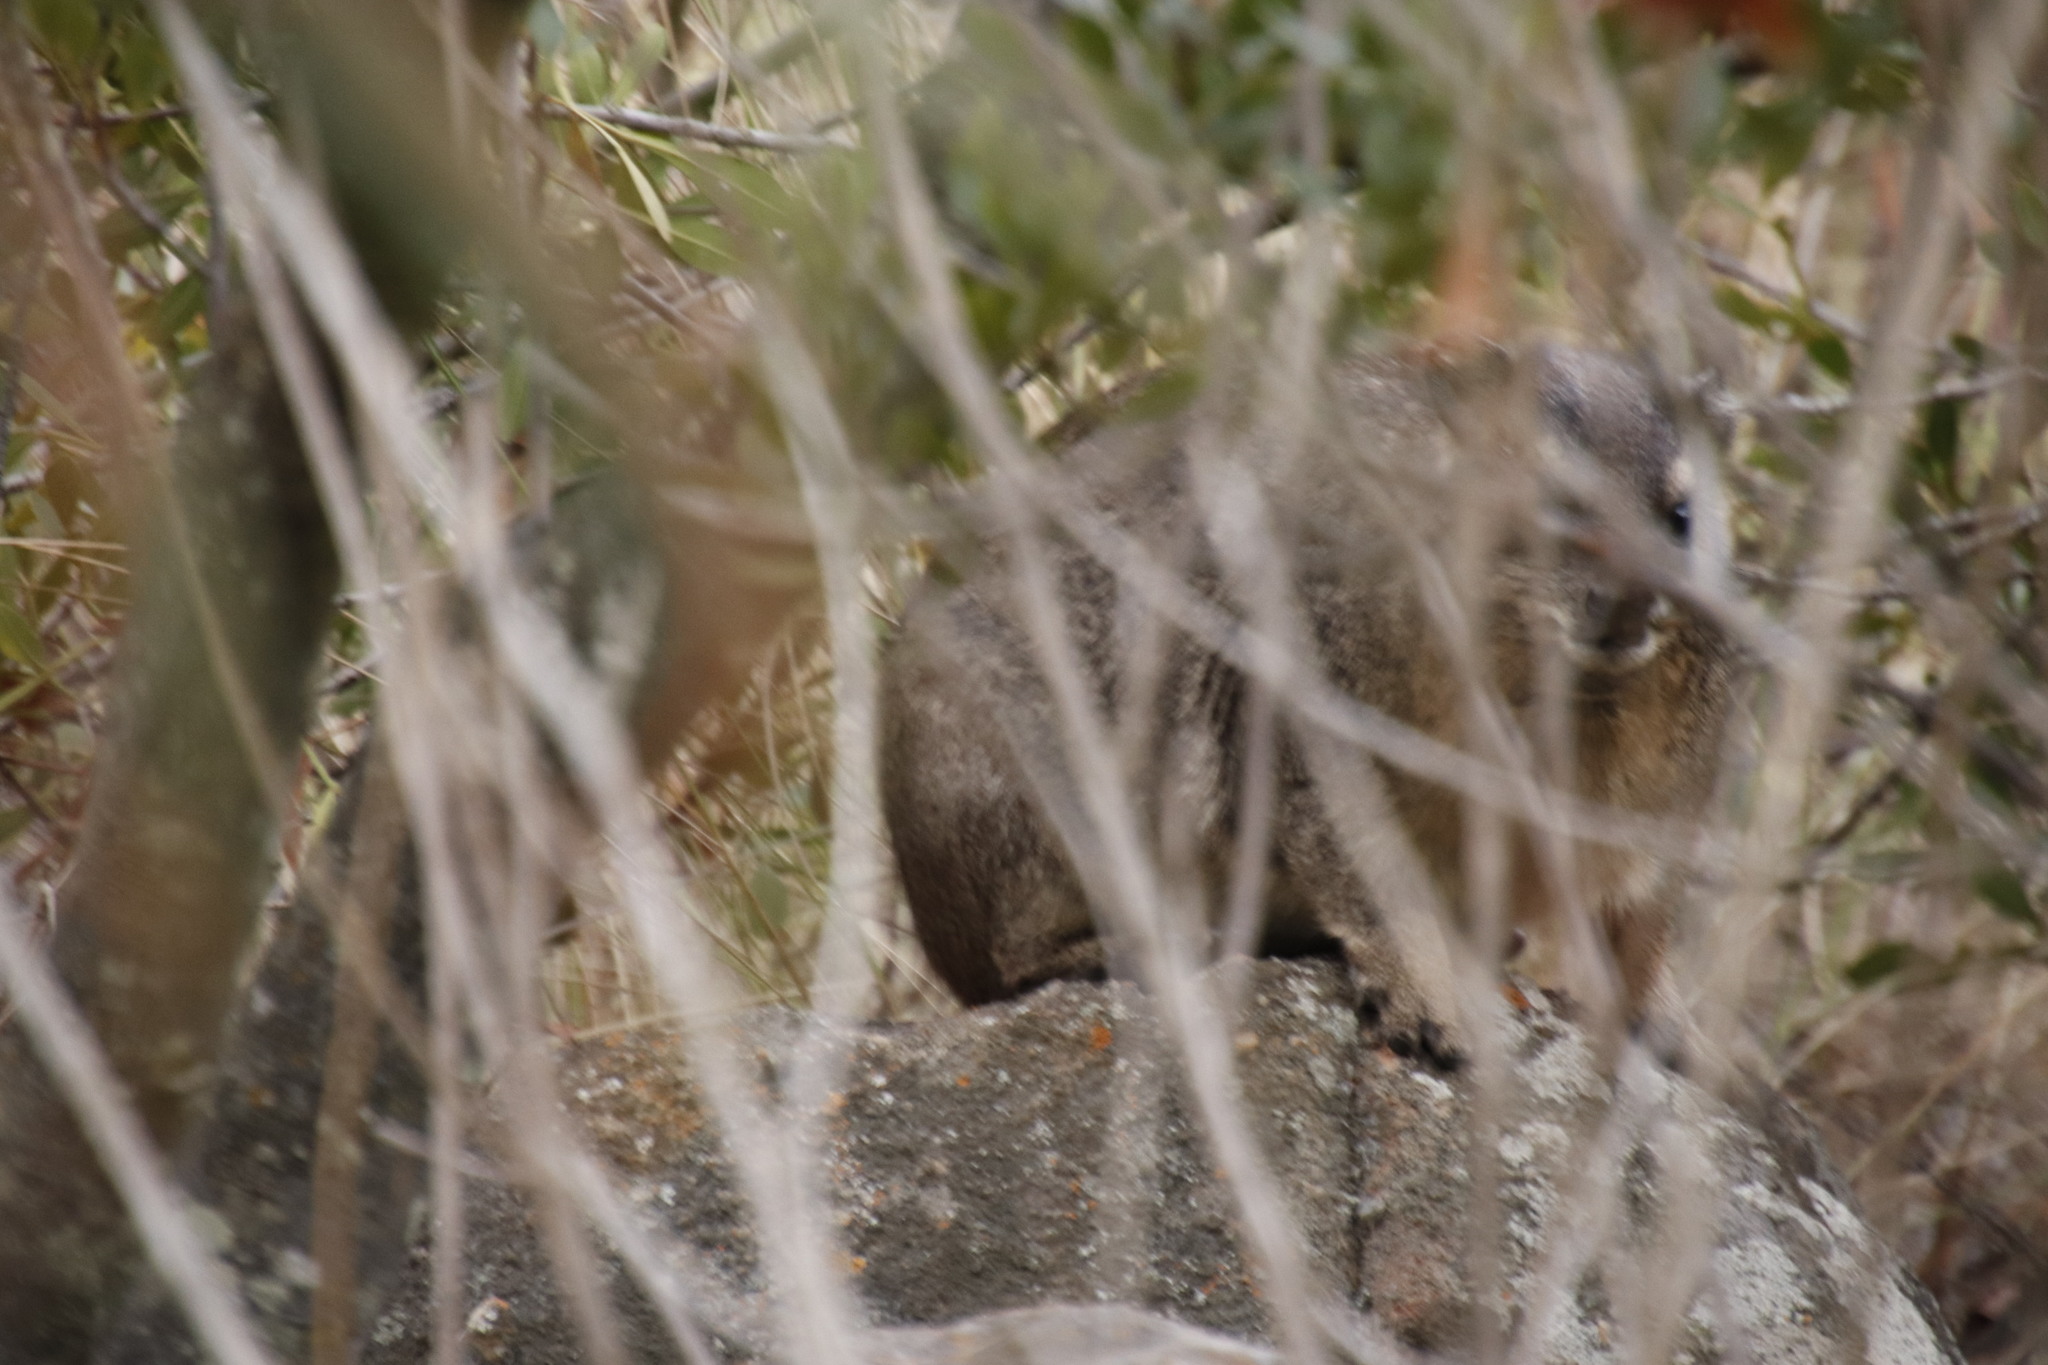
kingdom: Animalia
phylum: Chordata
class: Mammalia
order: Hyracoidea
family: Procaviidae
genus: Procavia
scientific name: Procavia capensis
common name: Rock hyrax
